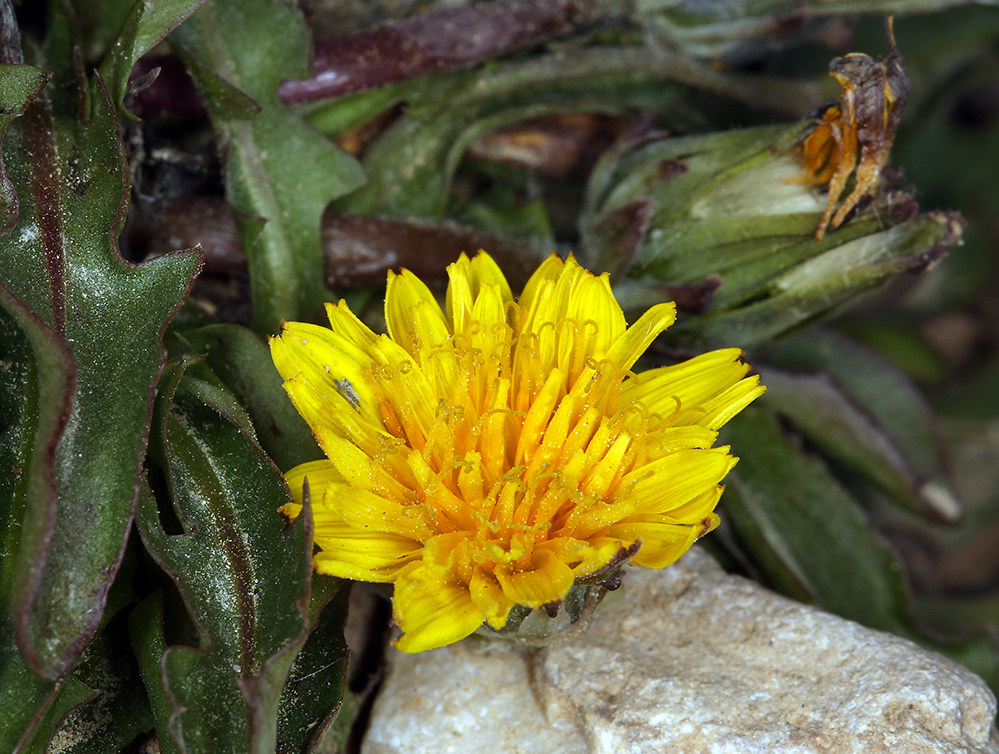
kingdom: Plantae
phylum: Tracheophyta
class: Magnoliopsida
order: Asterales
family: Asteraceae
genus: Taraxacum
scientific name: Taraxacum ceratophorum
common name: Horn-bearing dandelion
